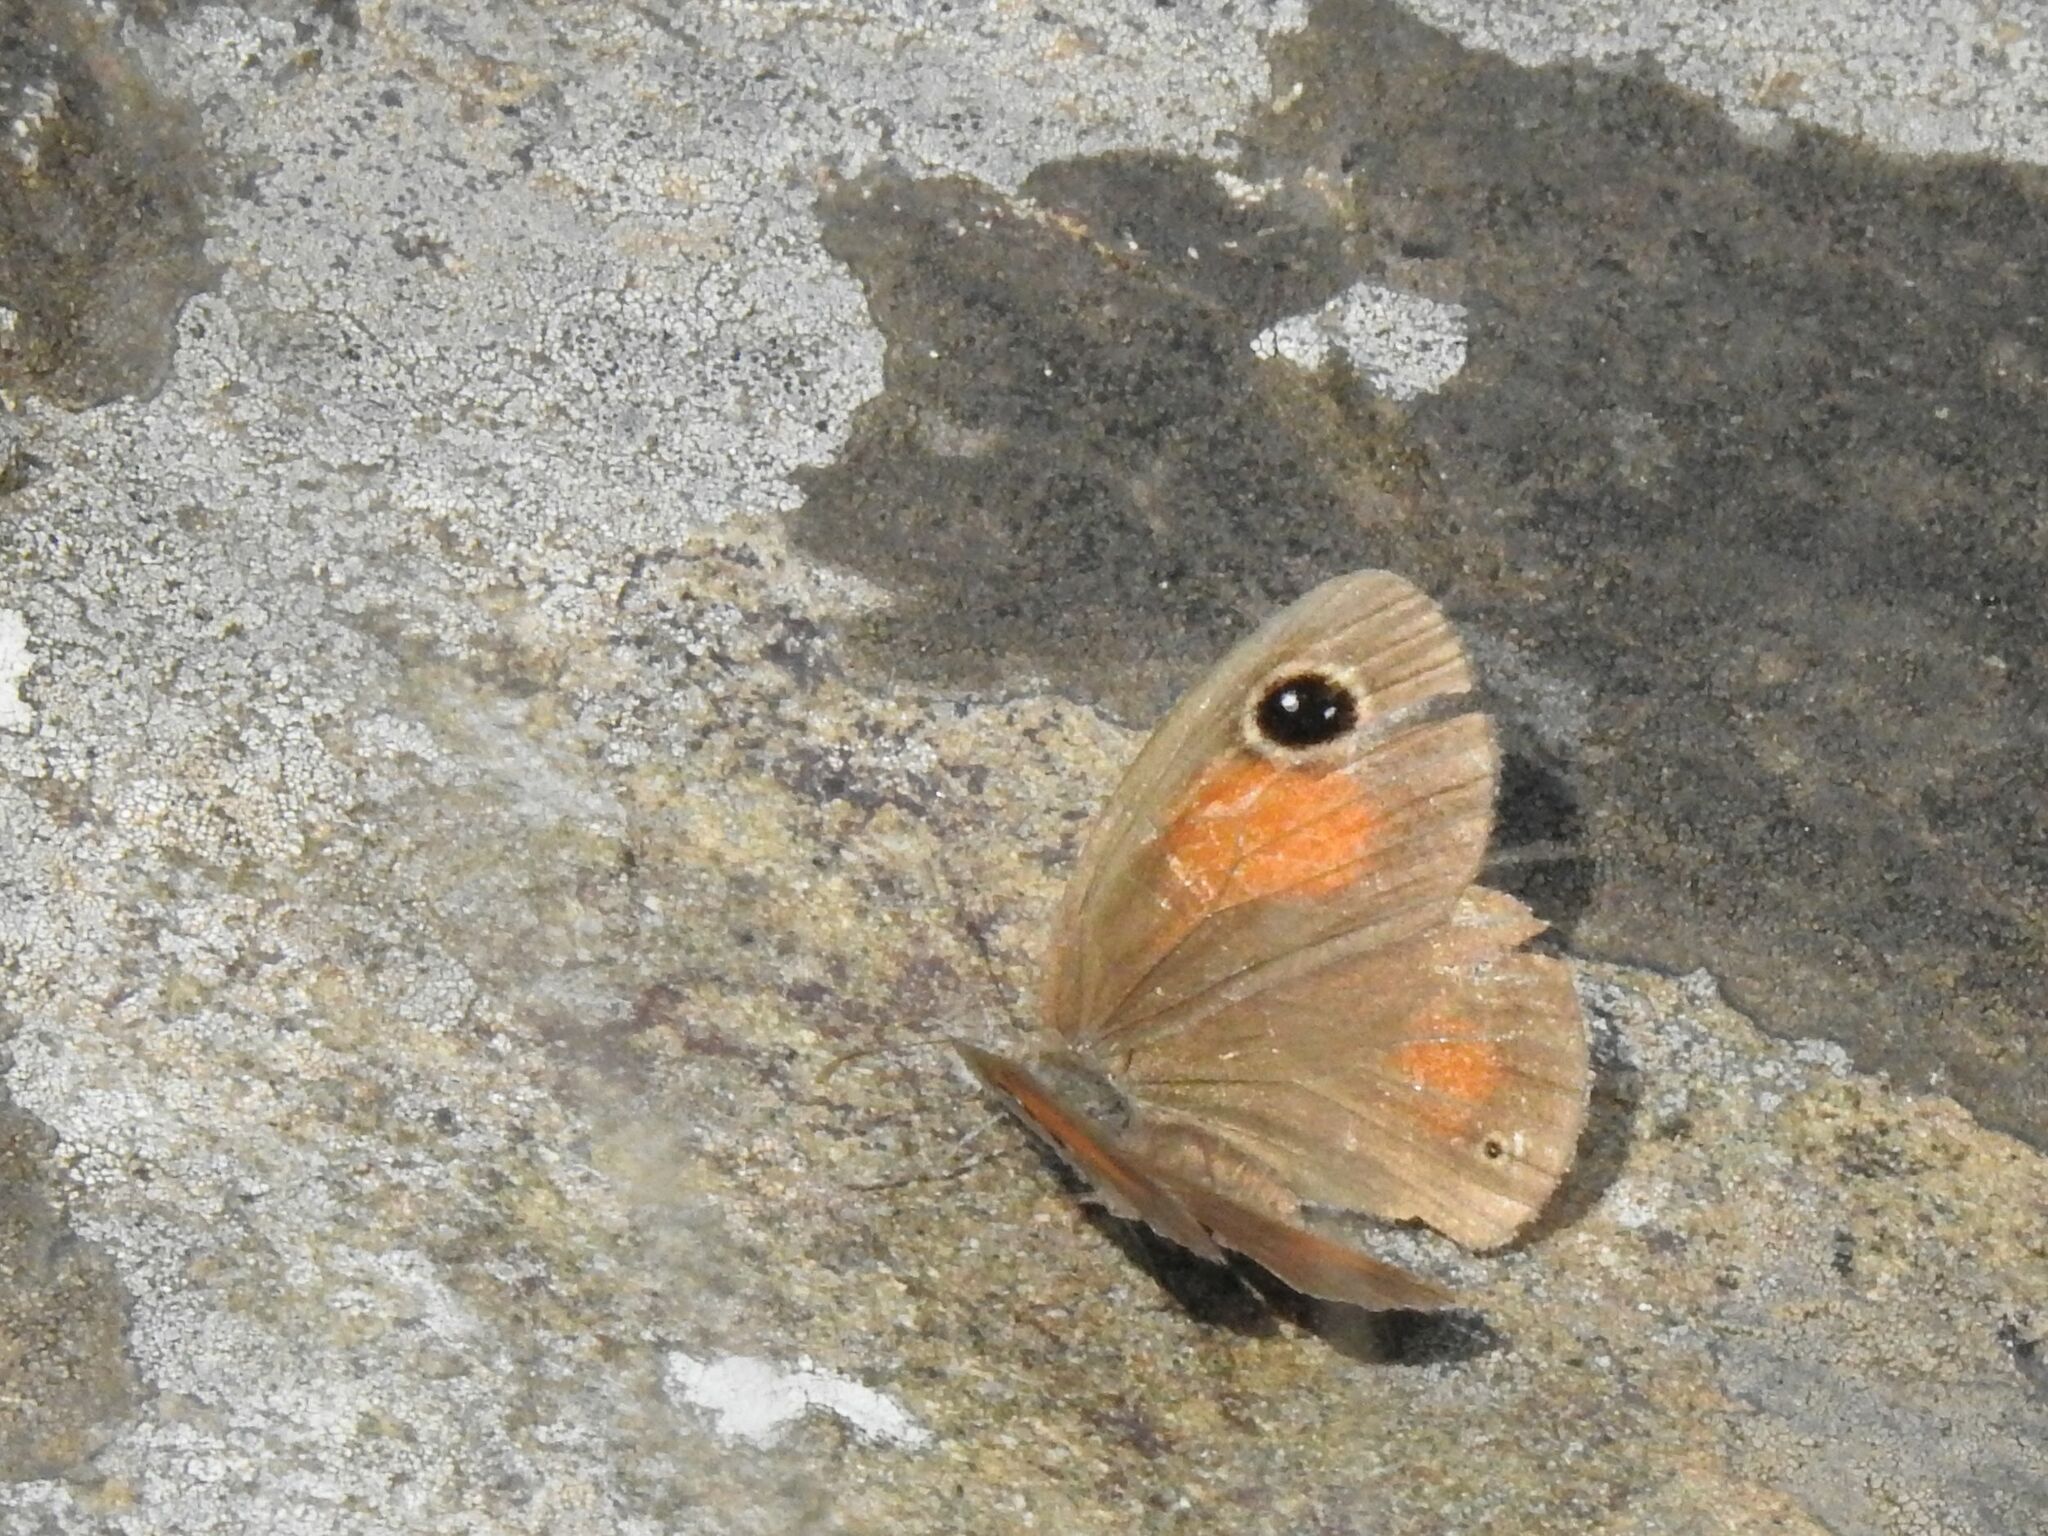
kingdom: Animalia
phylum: Arthropoda
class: Insecta
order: Lepidoptera
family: Nymphalidae
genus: Stygionympha
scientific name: Stygionympha wichgrafi
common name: Wichgraf’s hillside brown
